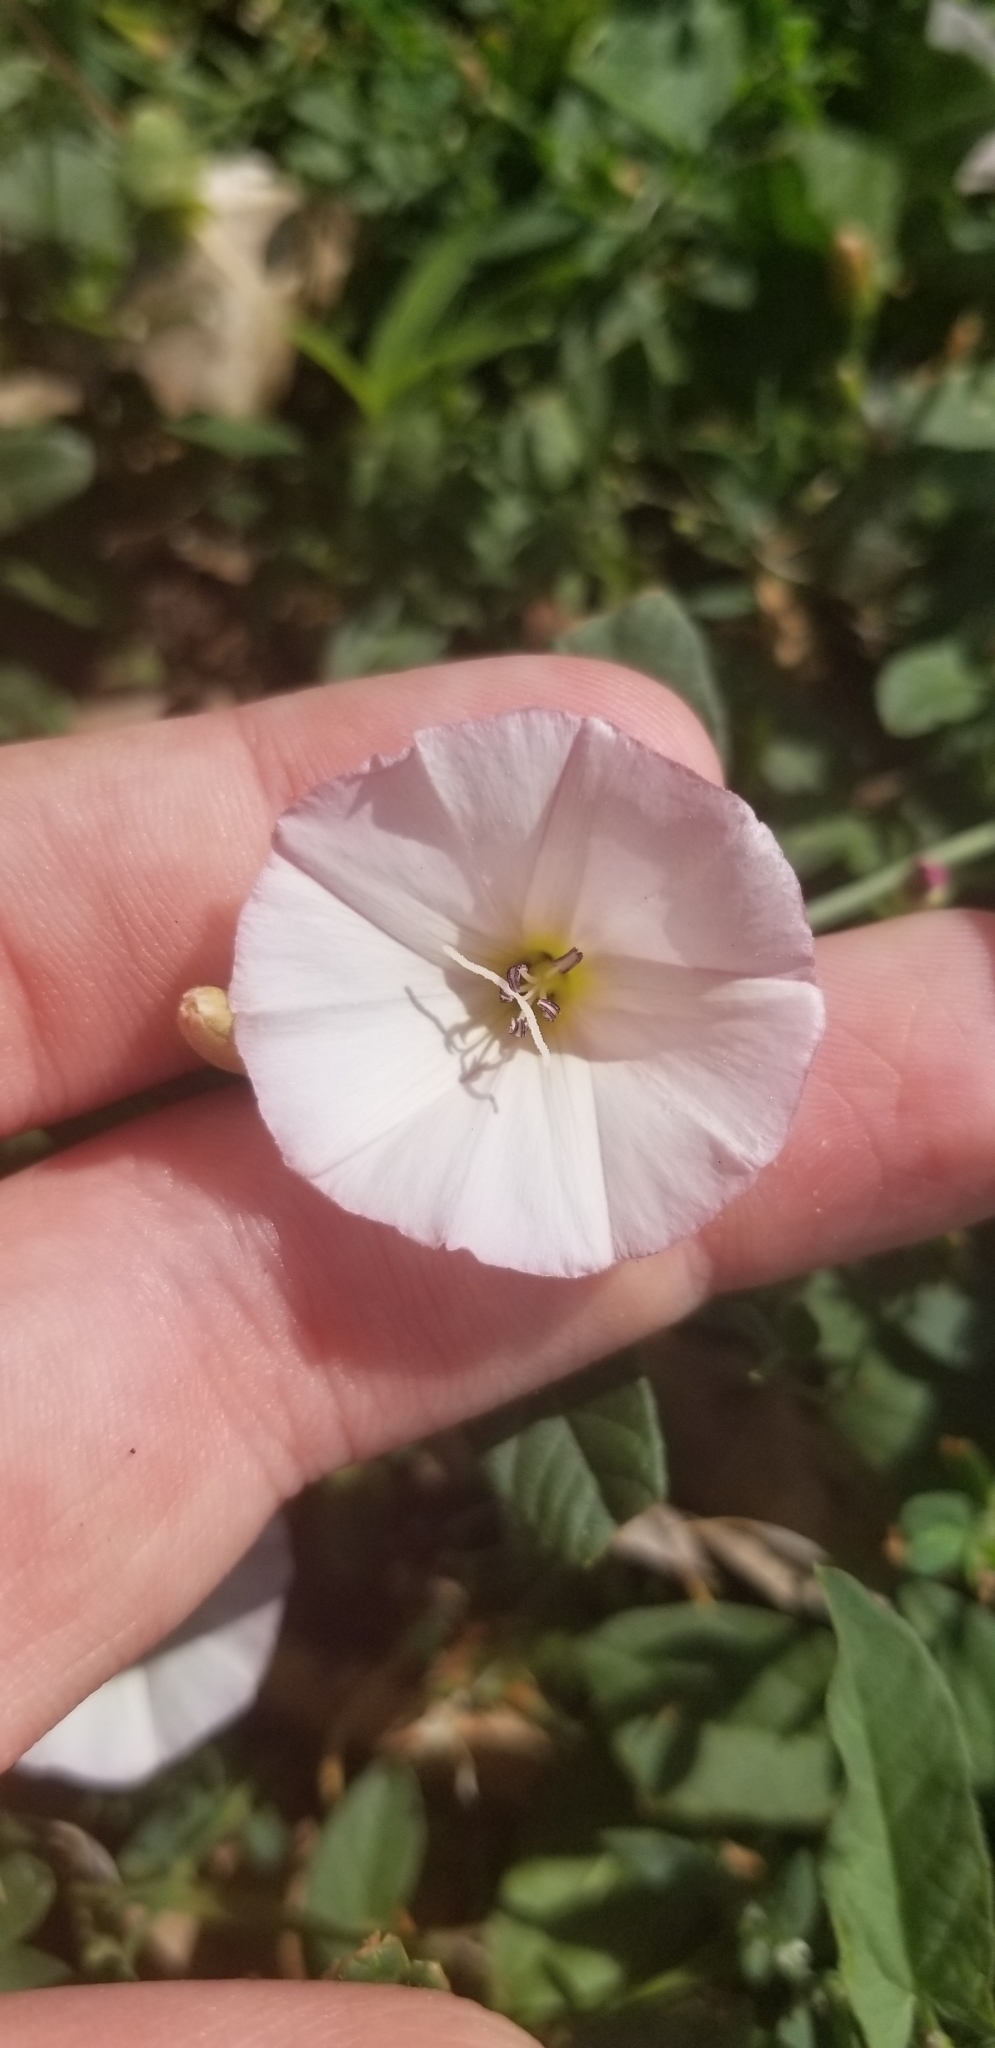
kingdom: Plantae
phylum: Tracheophyta
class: Magnoliopsida
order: Solanales
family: Convolvulaceae
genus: Convolvulus
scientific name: Convolvulus arvensis
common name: Field bindweed
